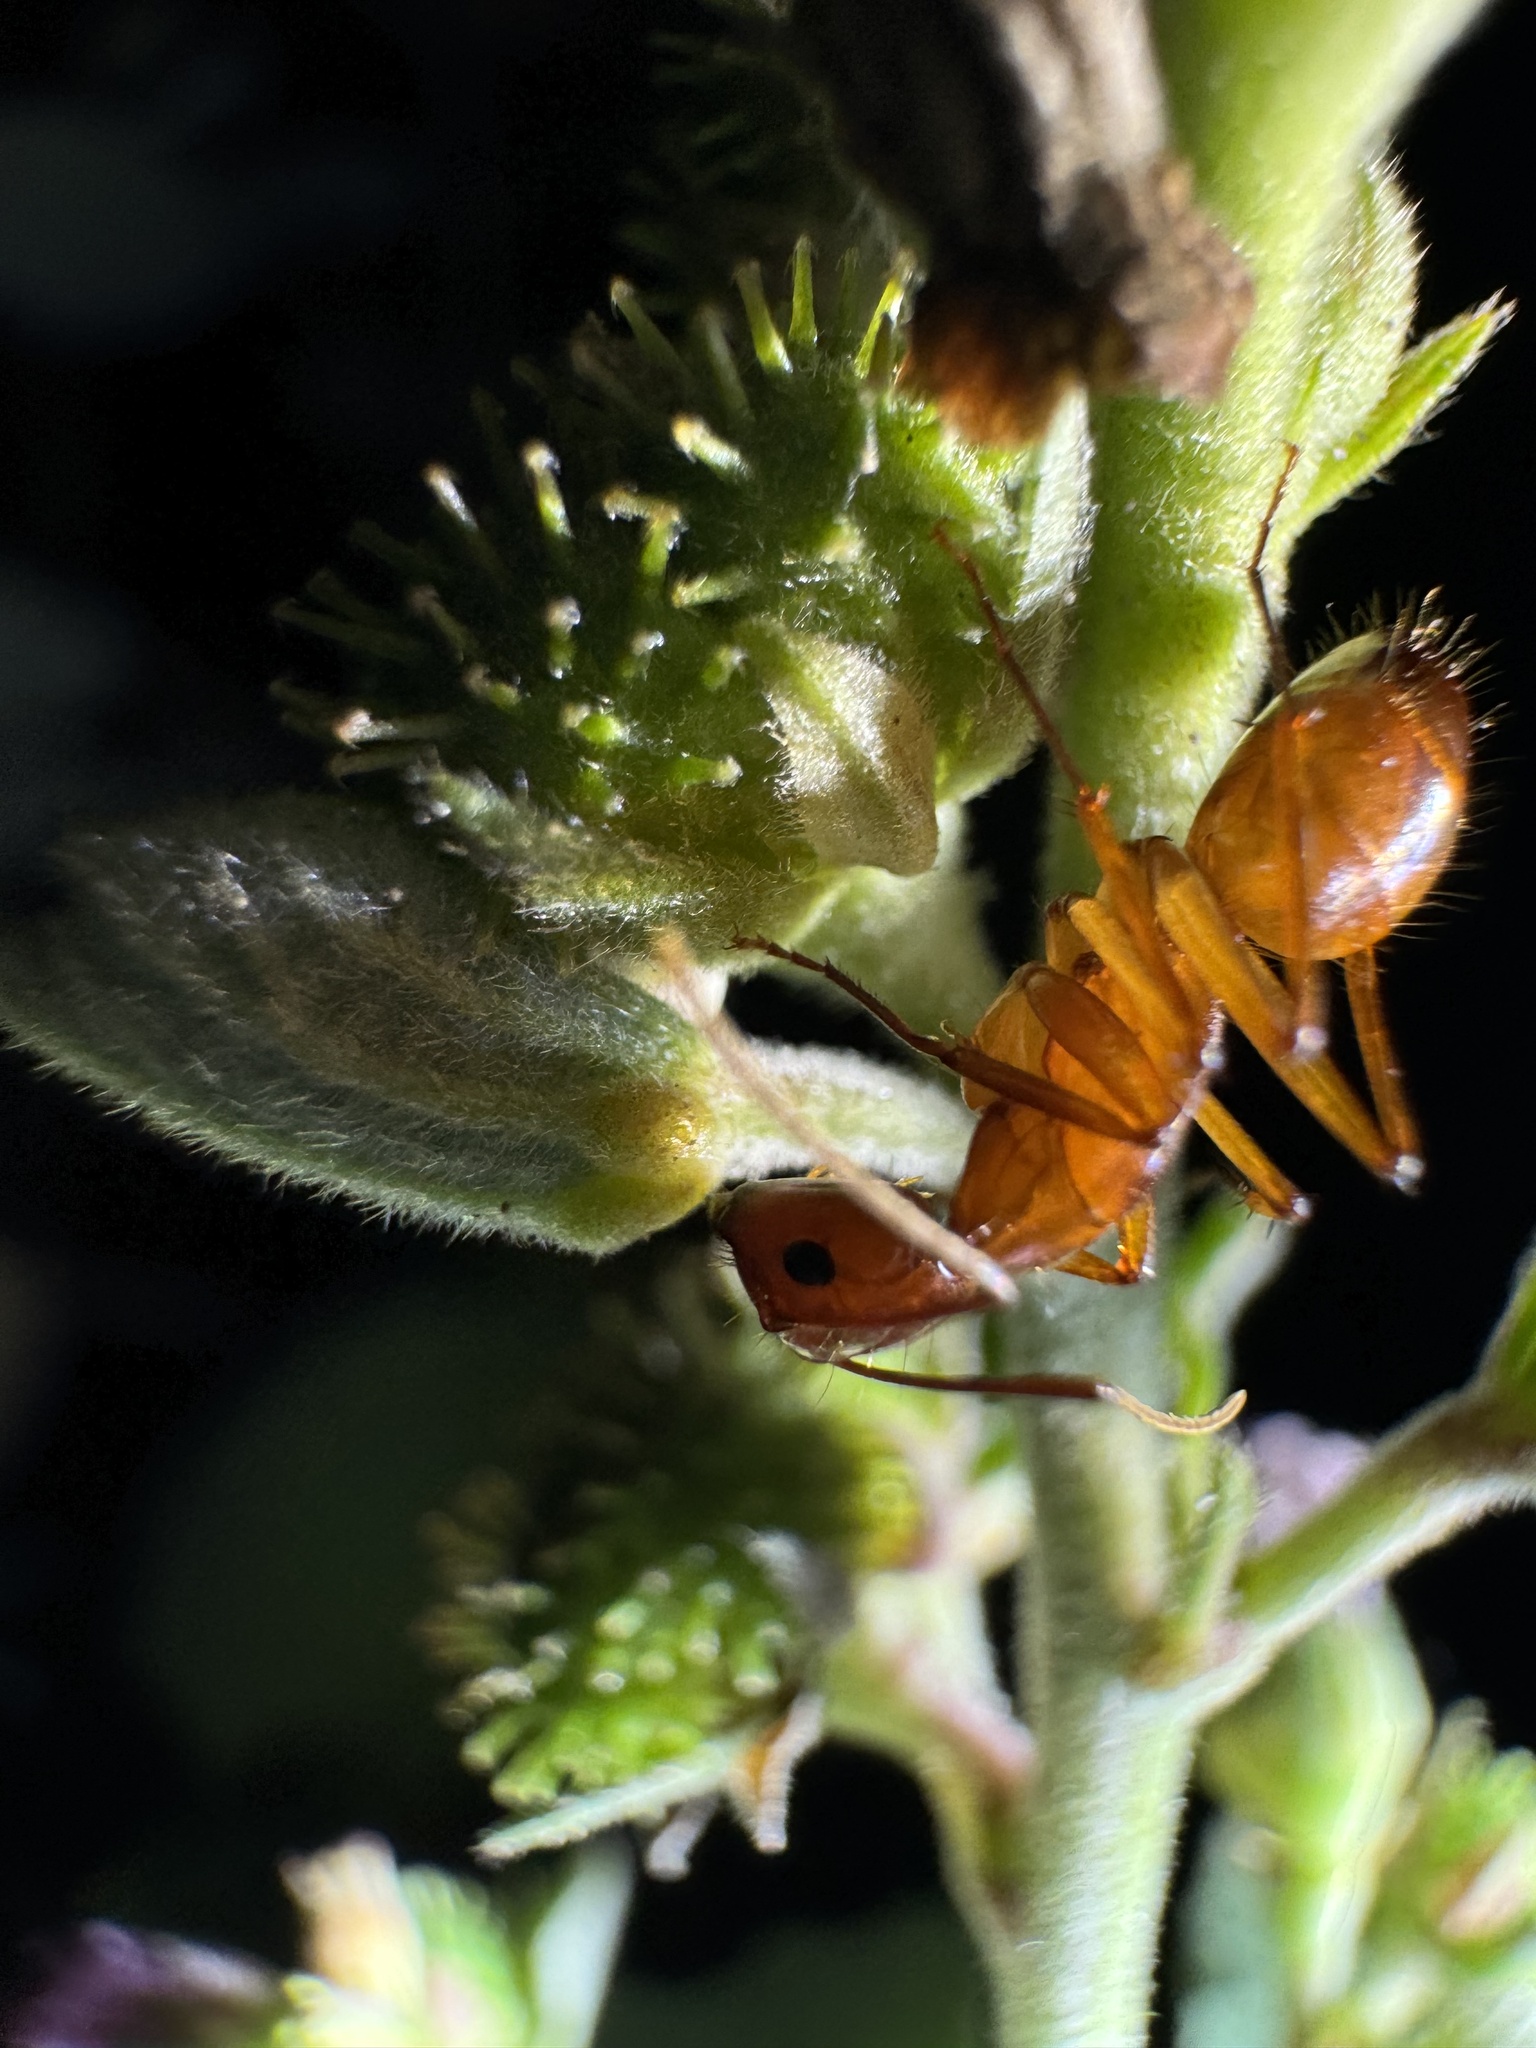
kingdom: Animalia
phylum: Arthropoda
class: Insecta
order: Hymenoptera
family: Formicidae
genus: Camponotus
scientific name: Camponotus castaneus
